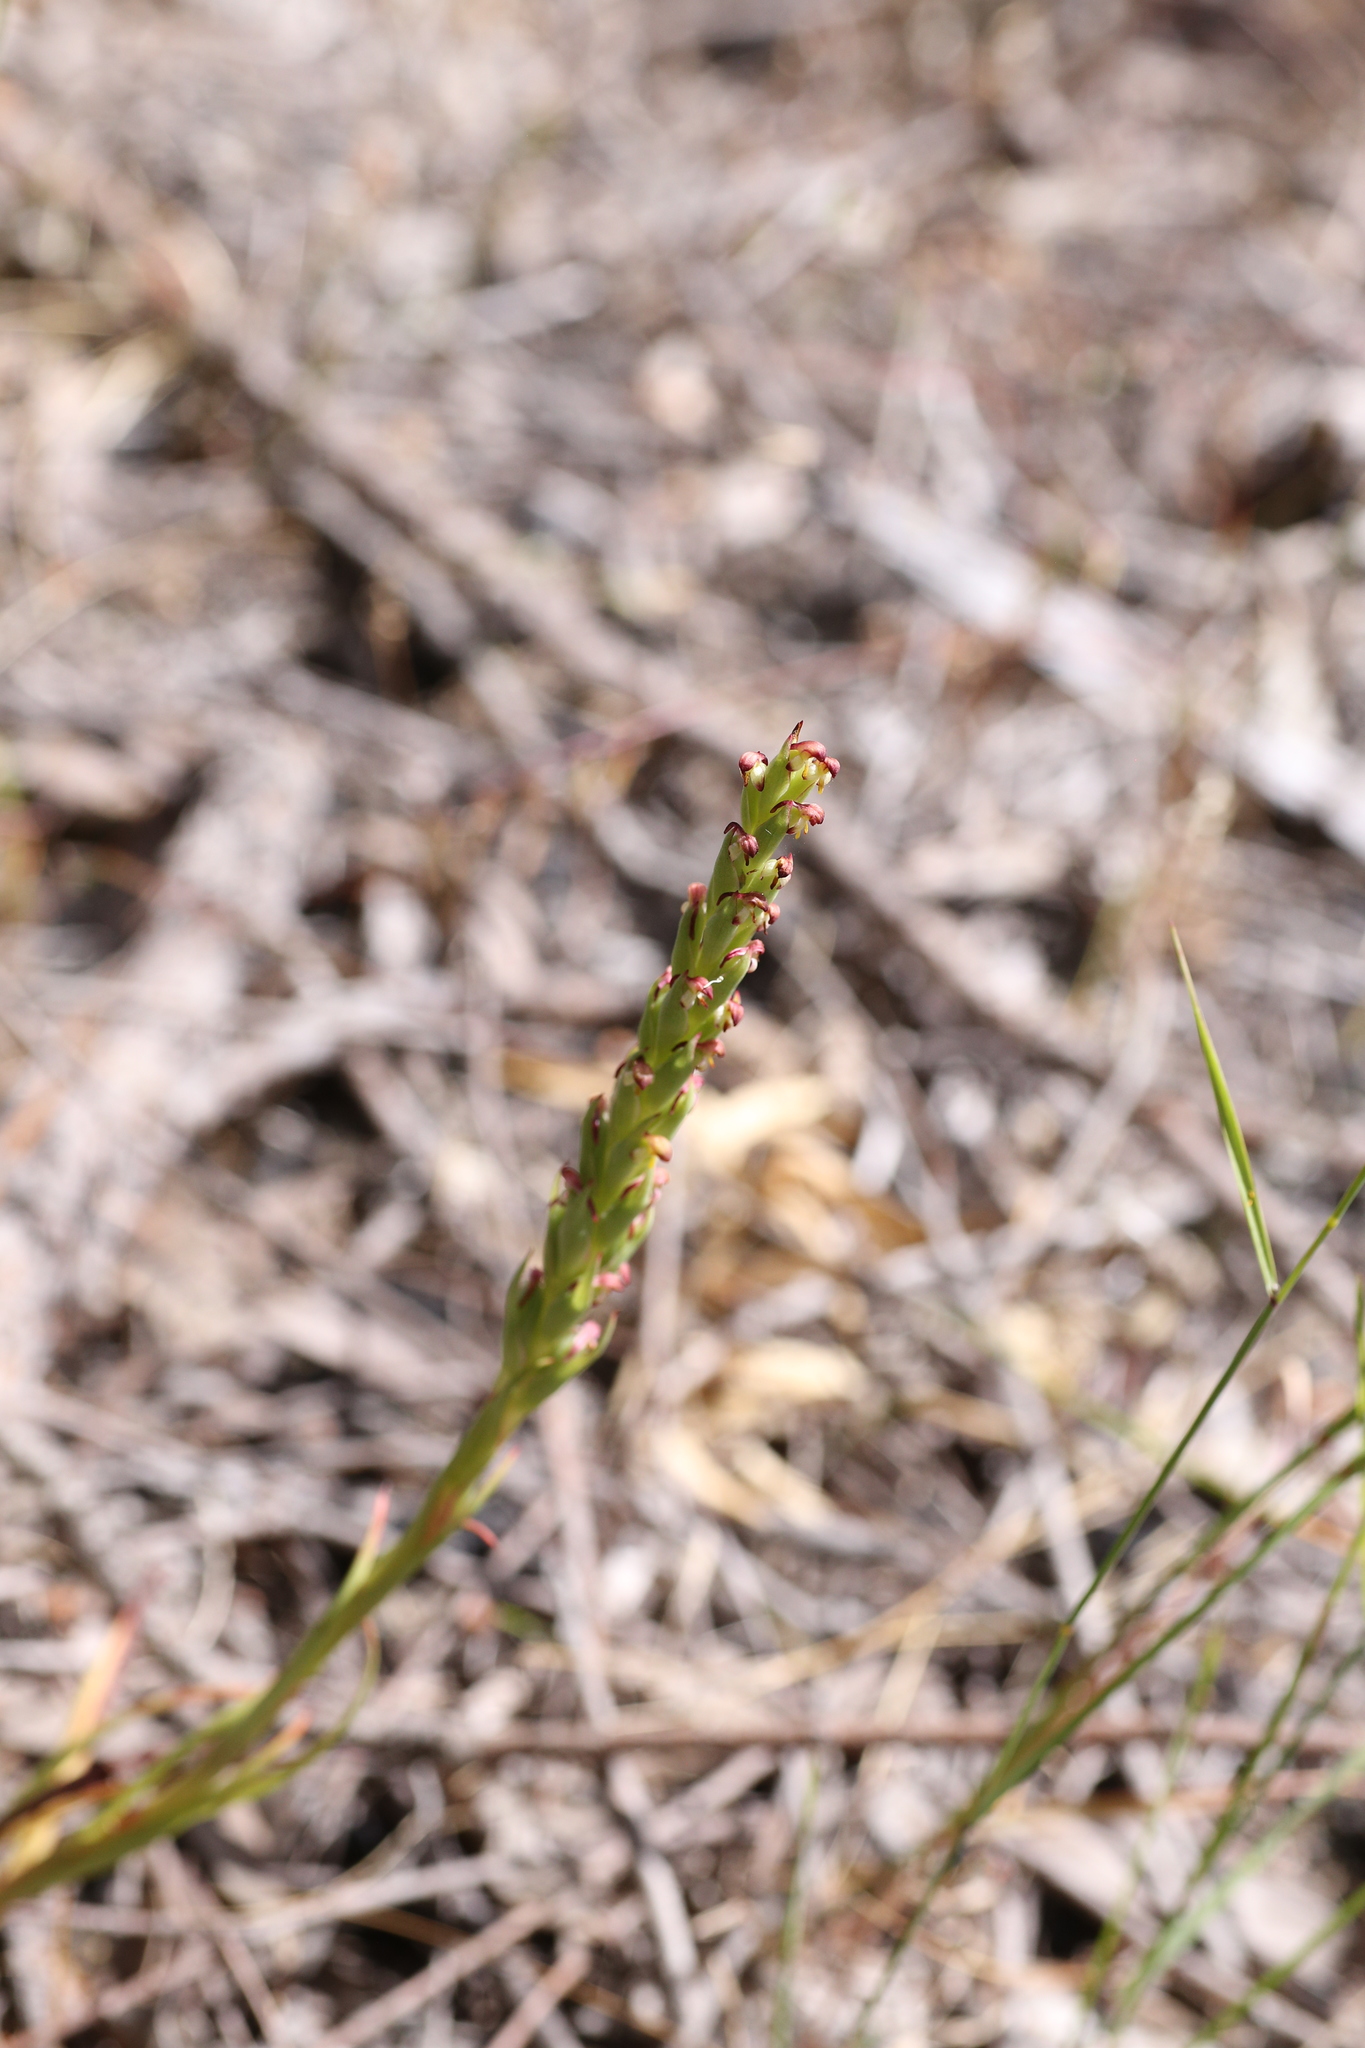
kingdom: Plantae
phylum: Tracheophyta
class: Liliopsida
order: Asparagales
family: Orchidaceae
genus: Disa
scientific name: Disa bracteata
